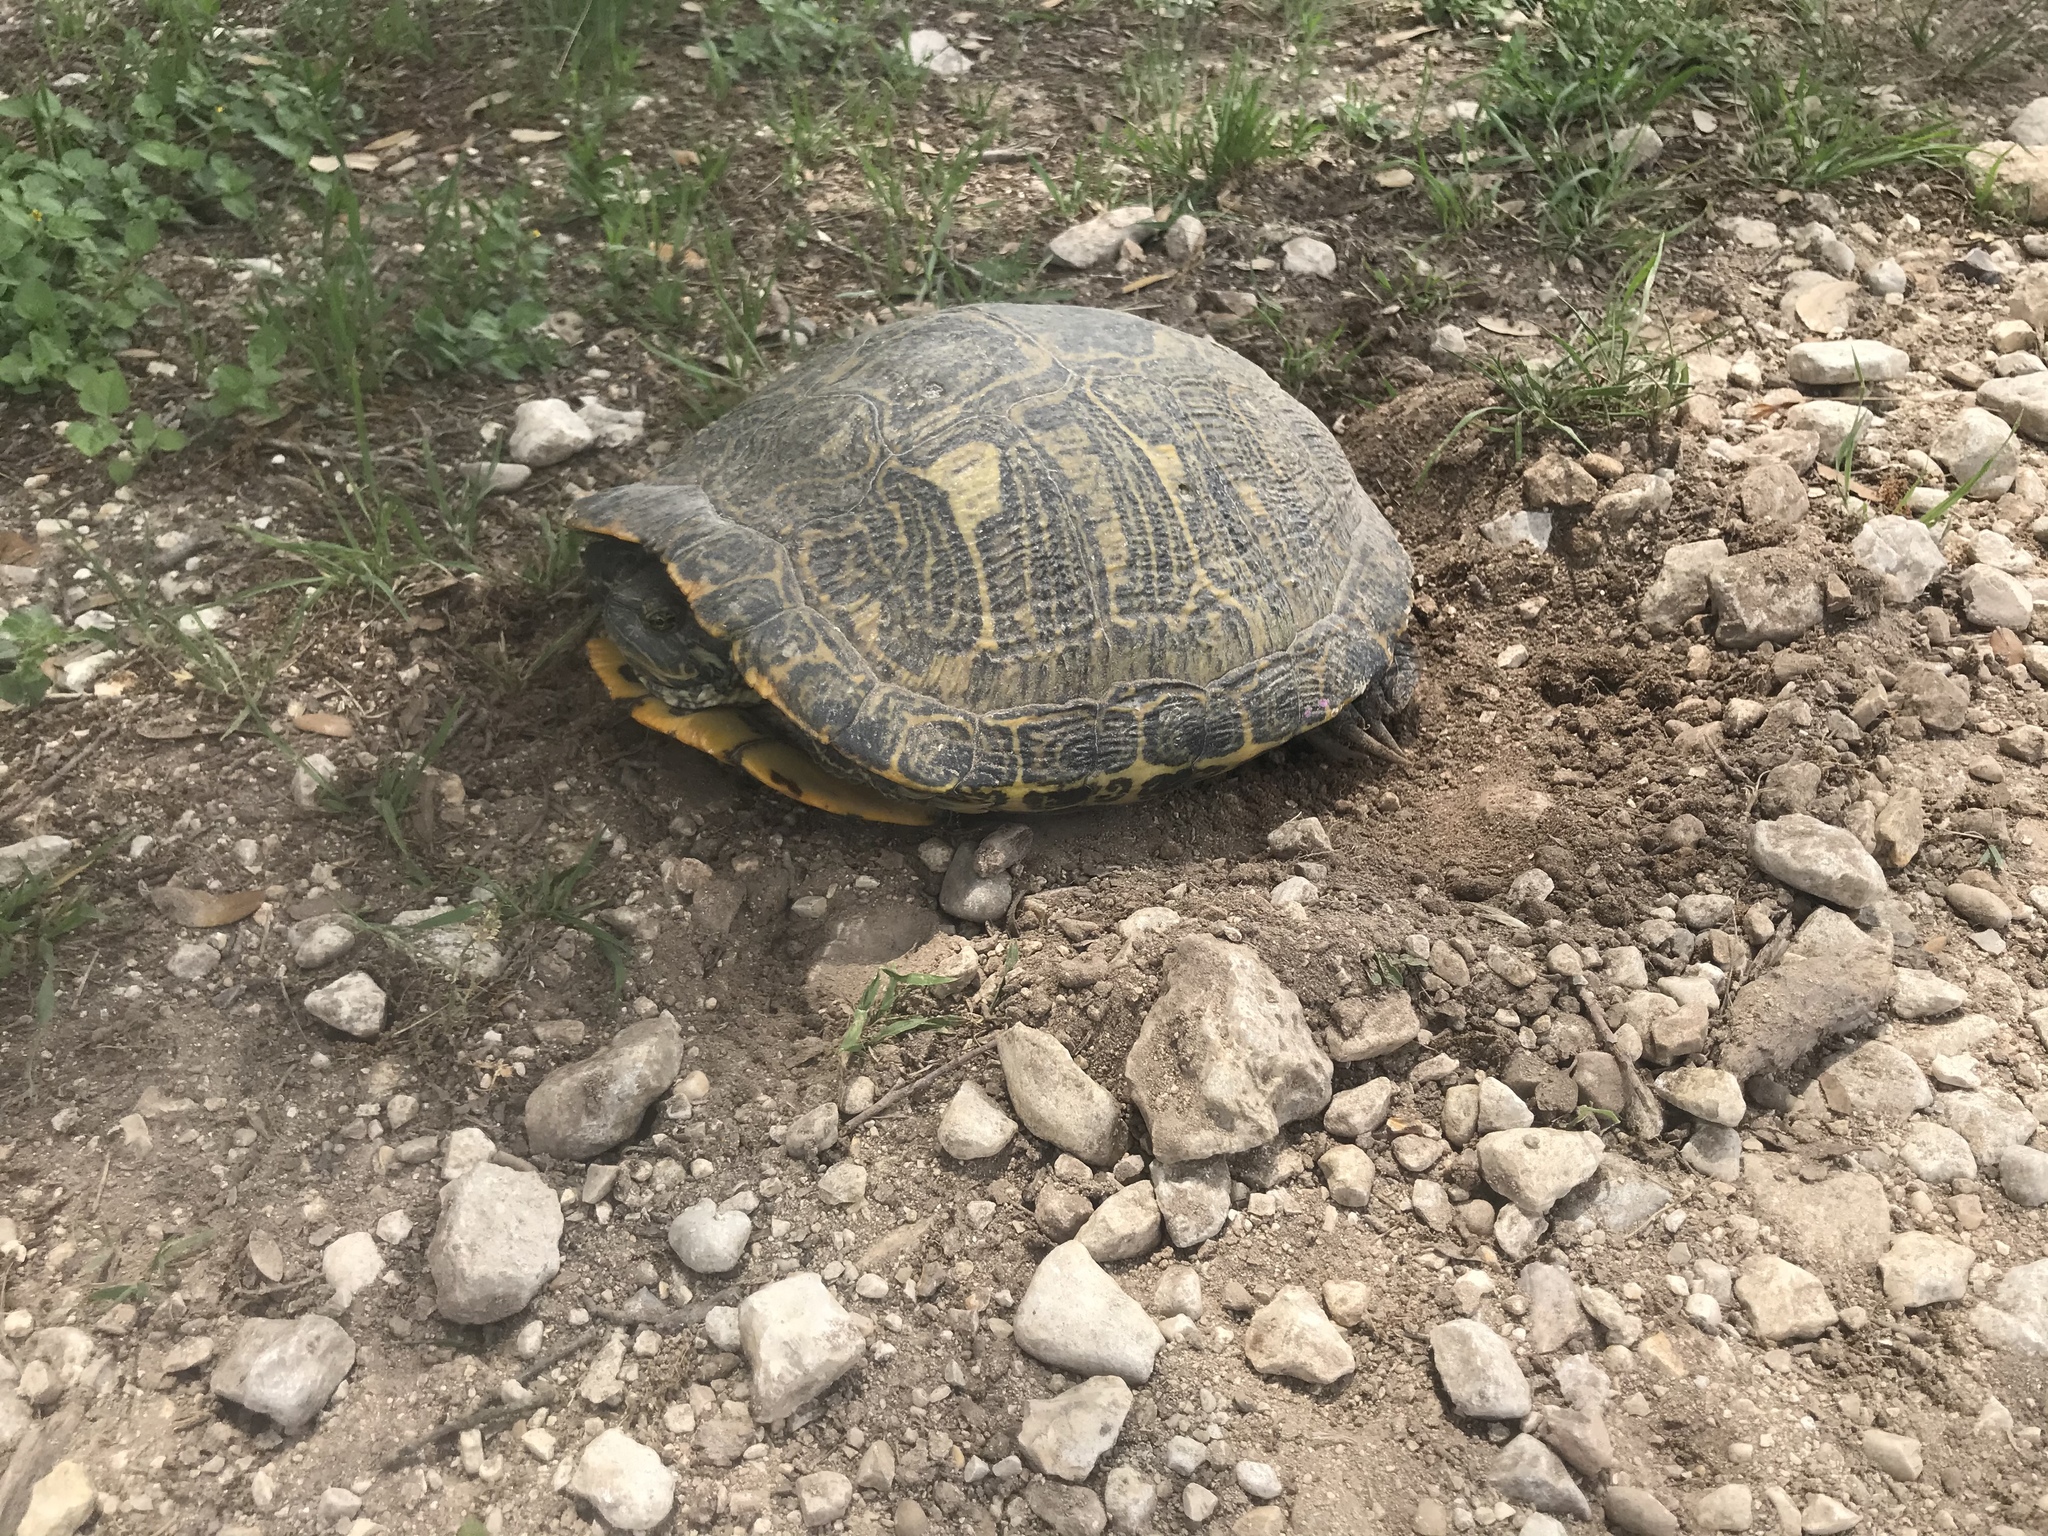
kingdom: Animalia
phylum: Chordata
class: Testudines
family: Emydidae
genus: Trachemys
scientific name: Trachemys scripta
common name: Slider
